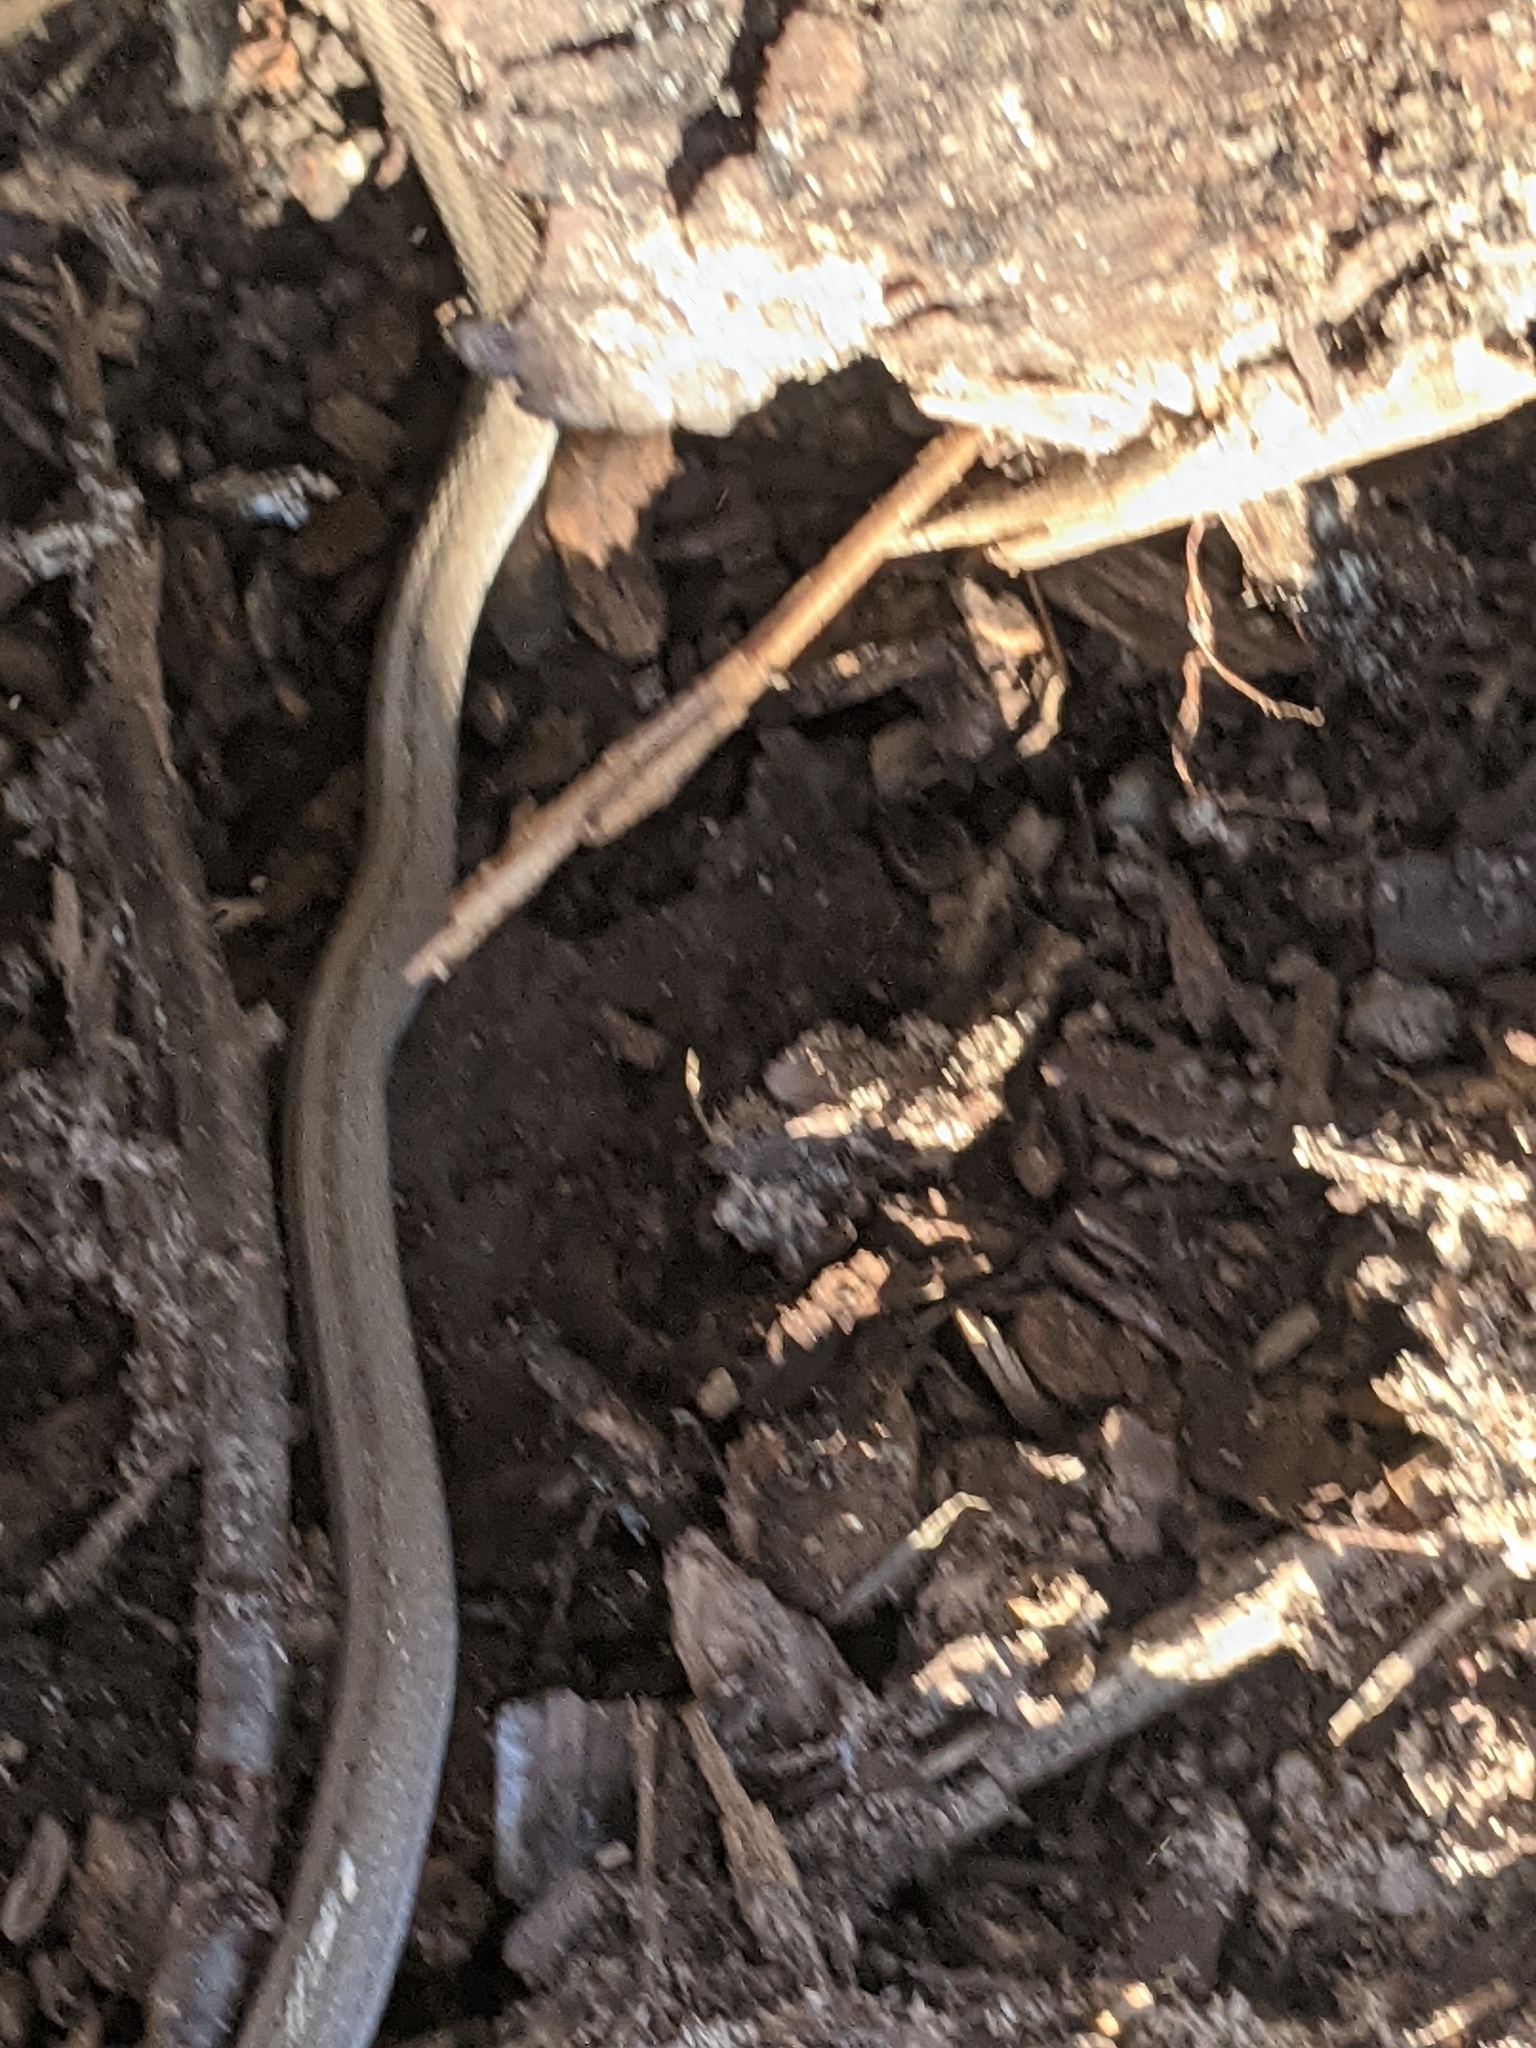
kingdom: Animalia
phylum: Chordata
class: Squamata
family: Colubridae
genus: Storeria
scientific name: Storeria dekayi
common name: (dekay’s) brown snake
